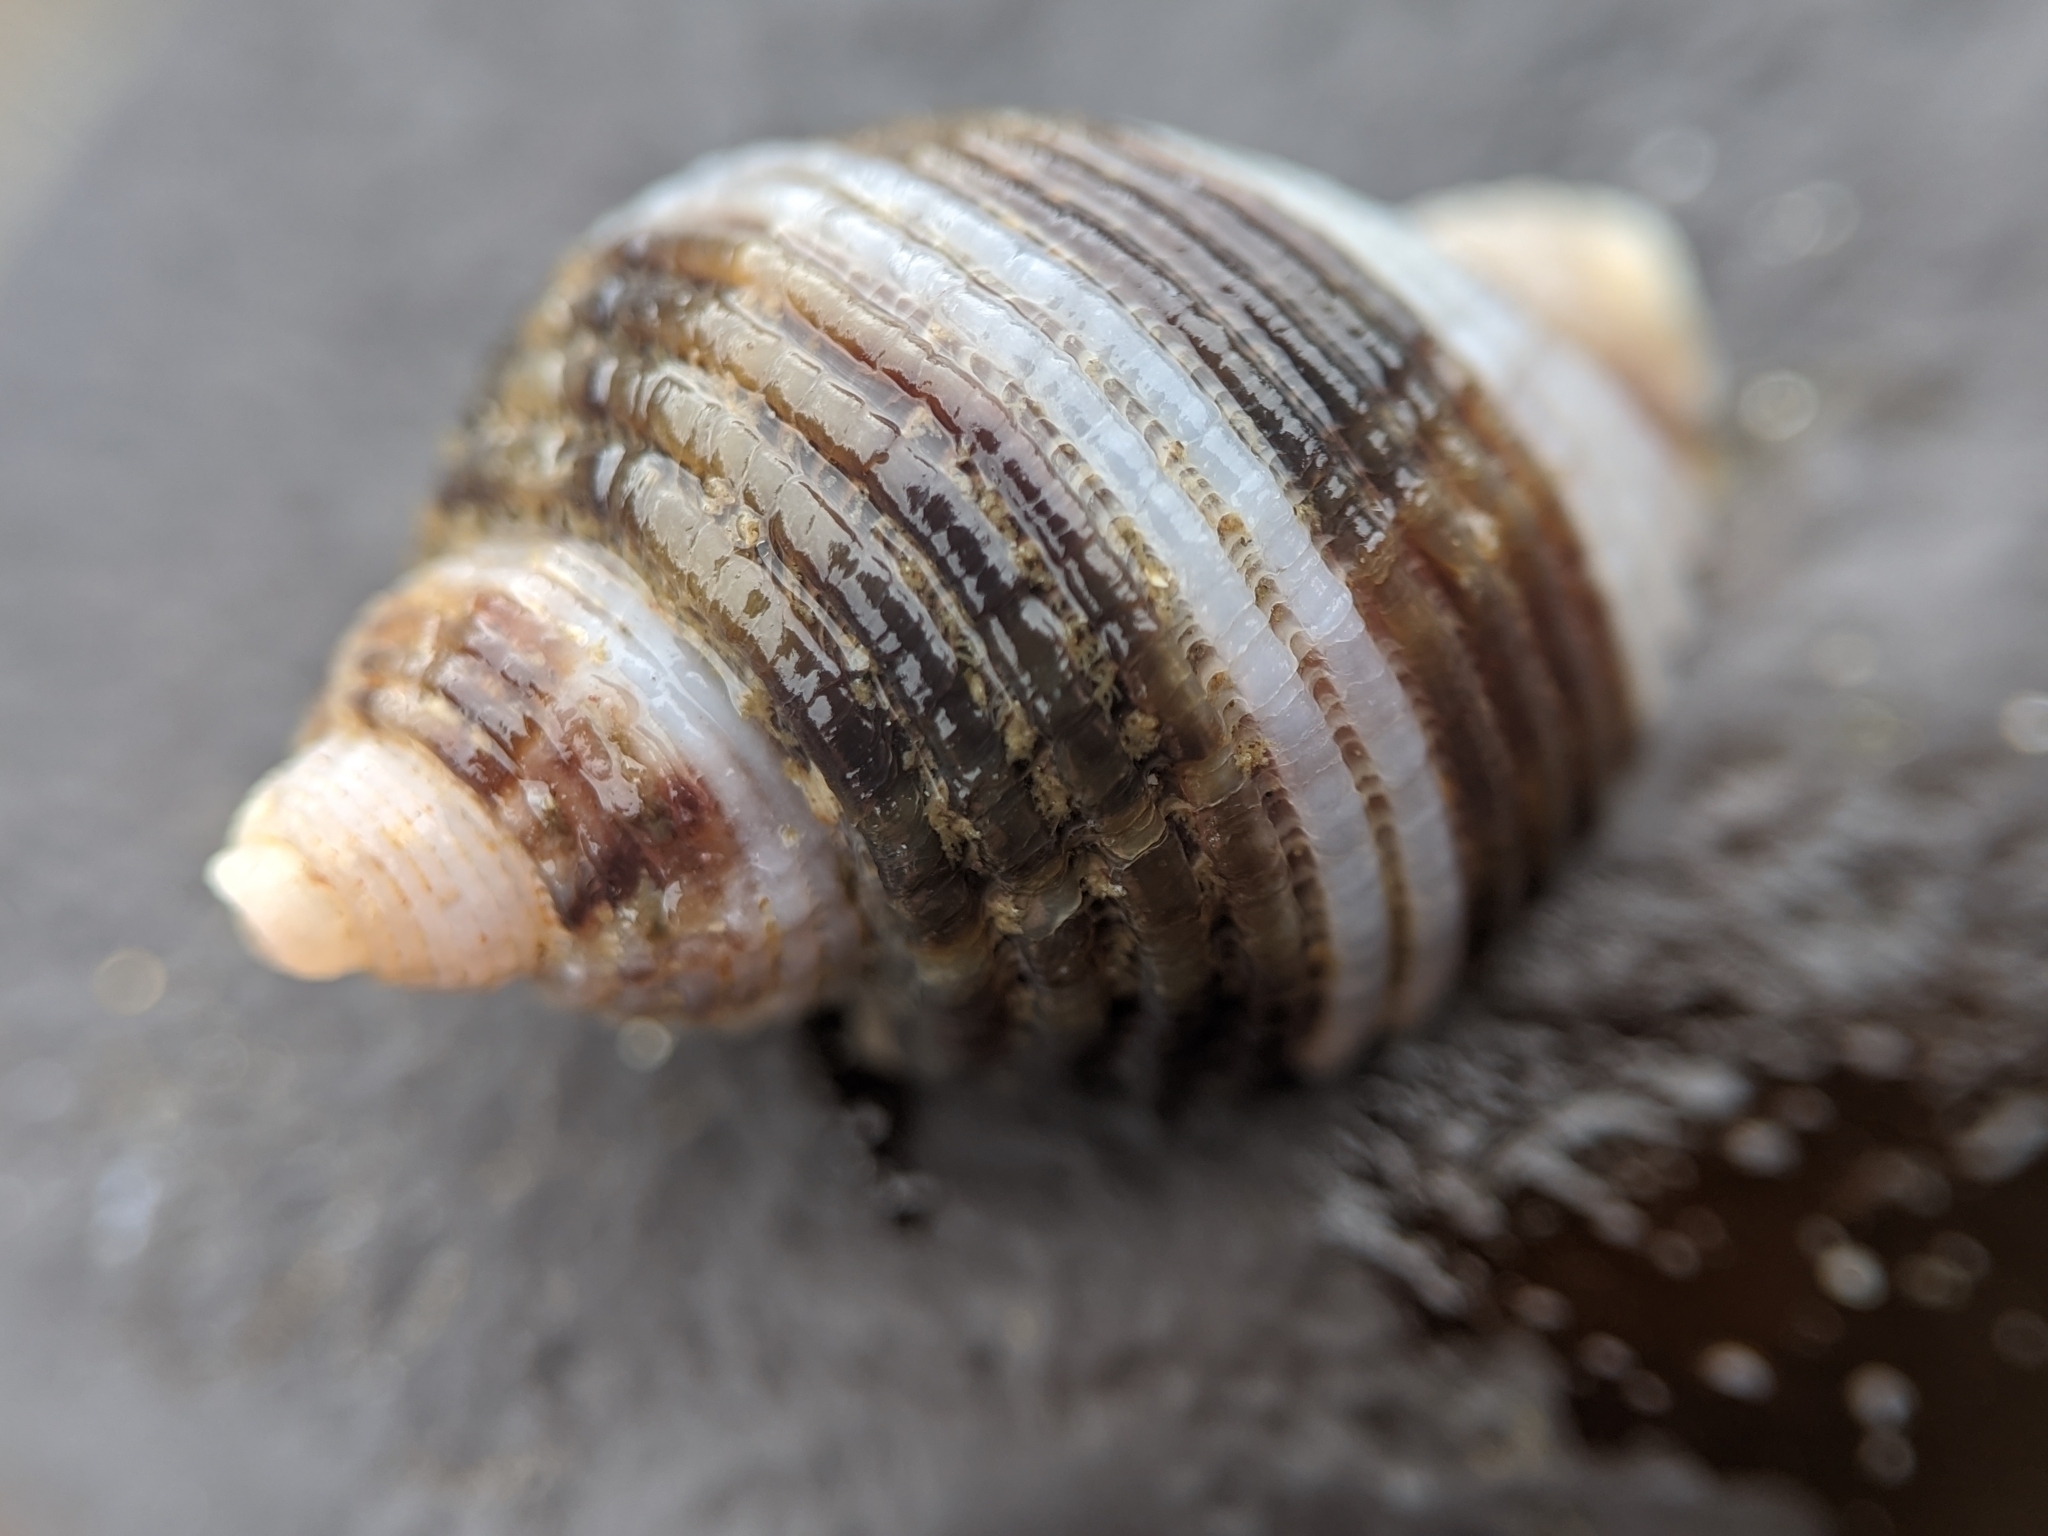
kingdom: Animalia
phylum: Mollusca
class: Gastropoda
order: Neogastropoda
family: Muricidae
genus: Nucella
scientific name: Nucella analoga
